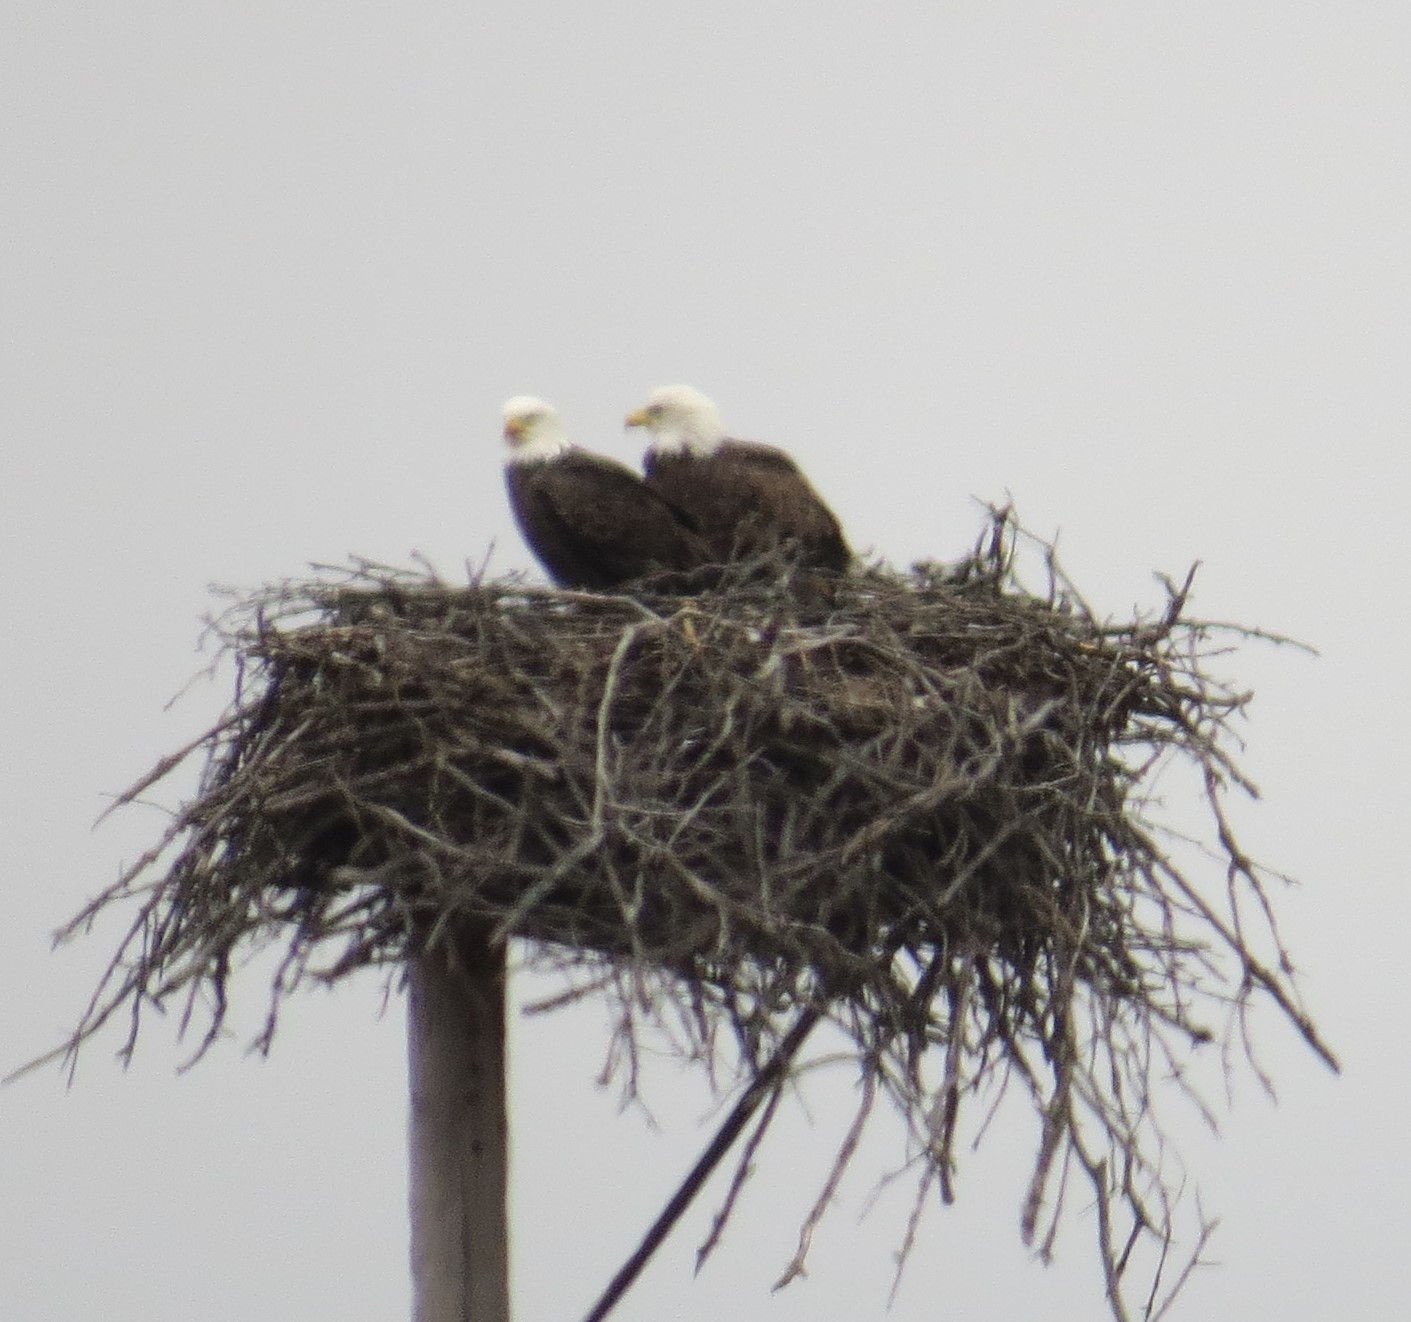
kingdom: Animalia
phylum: Chordata
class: Aves
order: Accipitriformes
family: Accipitridae
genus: Haliaeetus
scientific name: Haliaeetus leucocephalus
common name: Bald eagle
